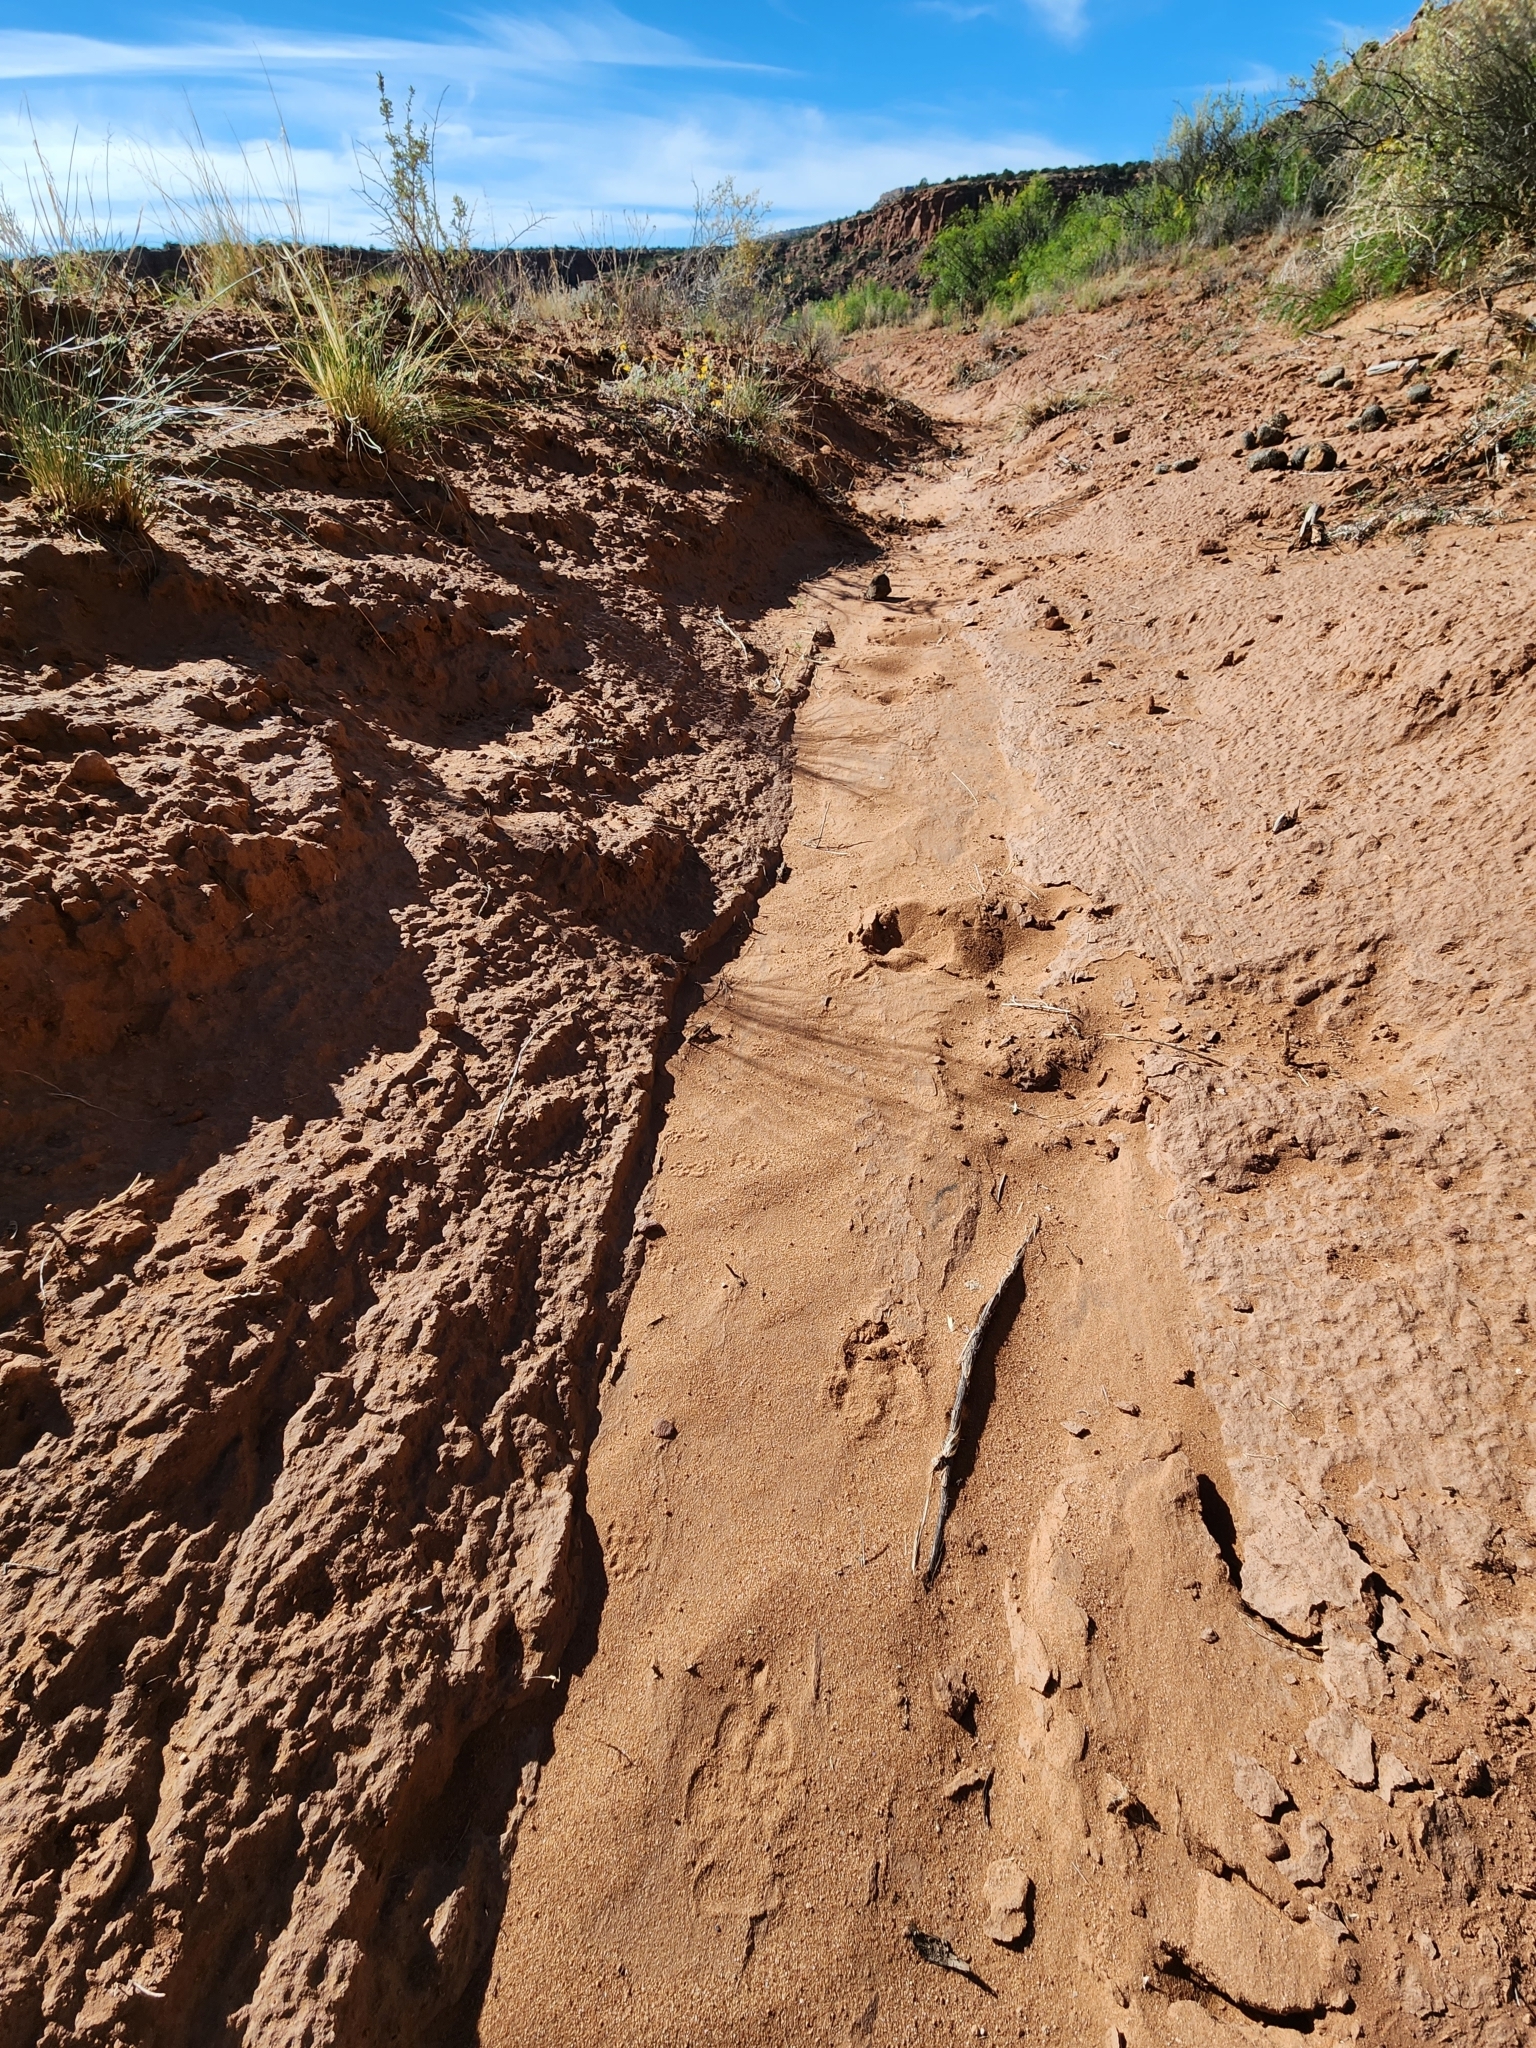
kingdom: Animalia
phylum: Chordata
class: Mammalia
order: Carnivora
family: Canidae
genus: Canis
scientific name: Canis latrans
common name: Coyote
